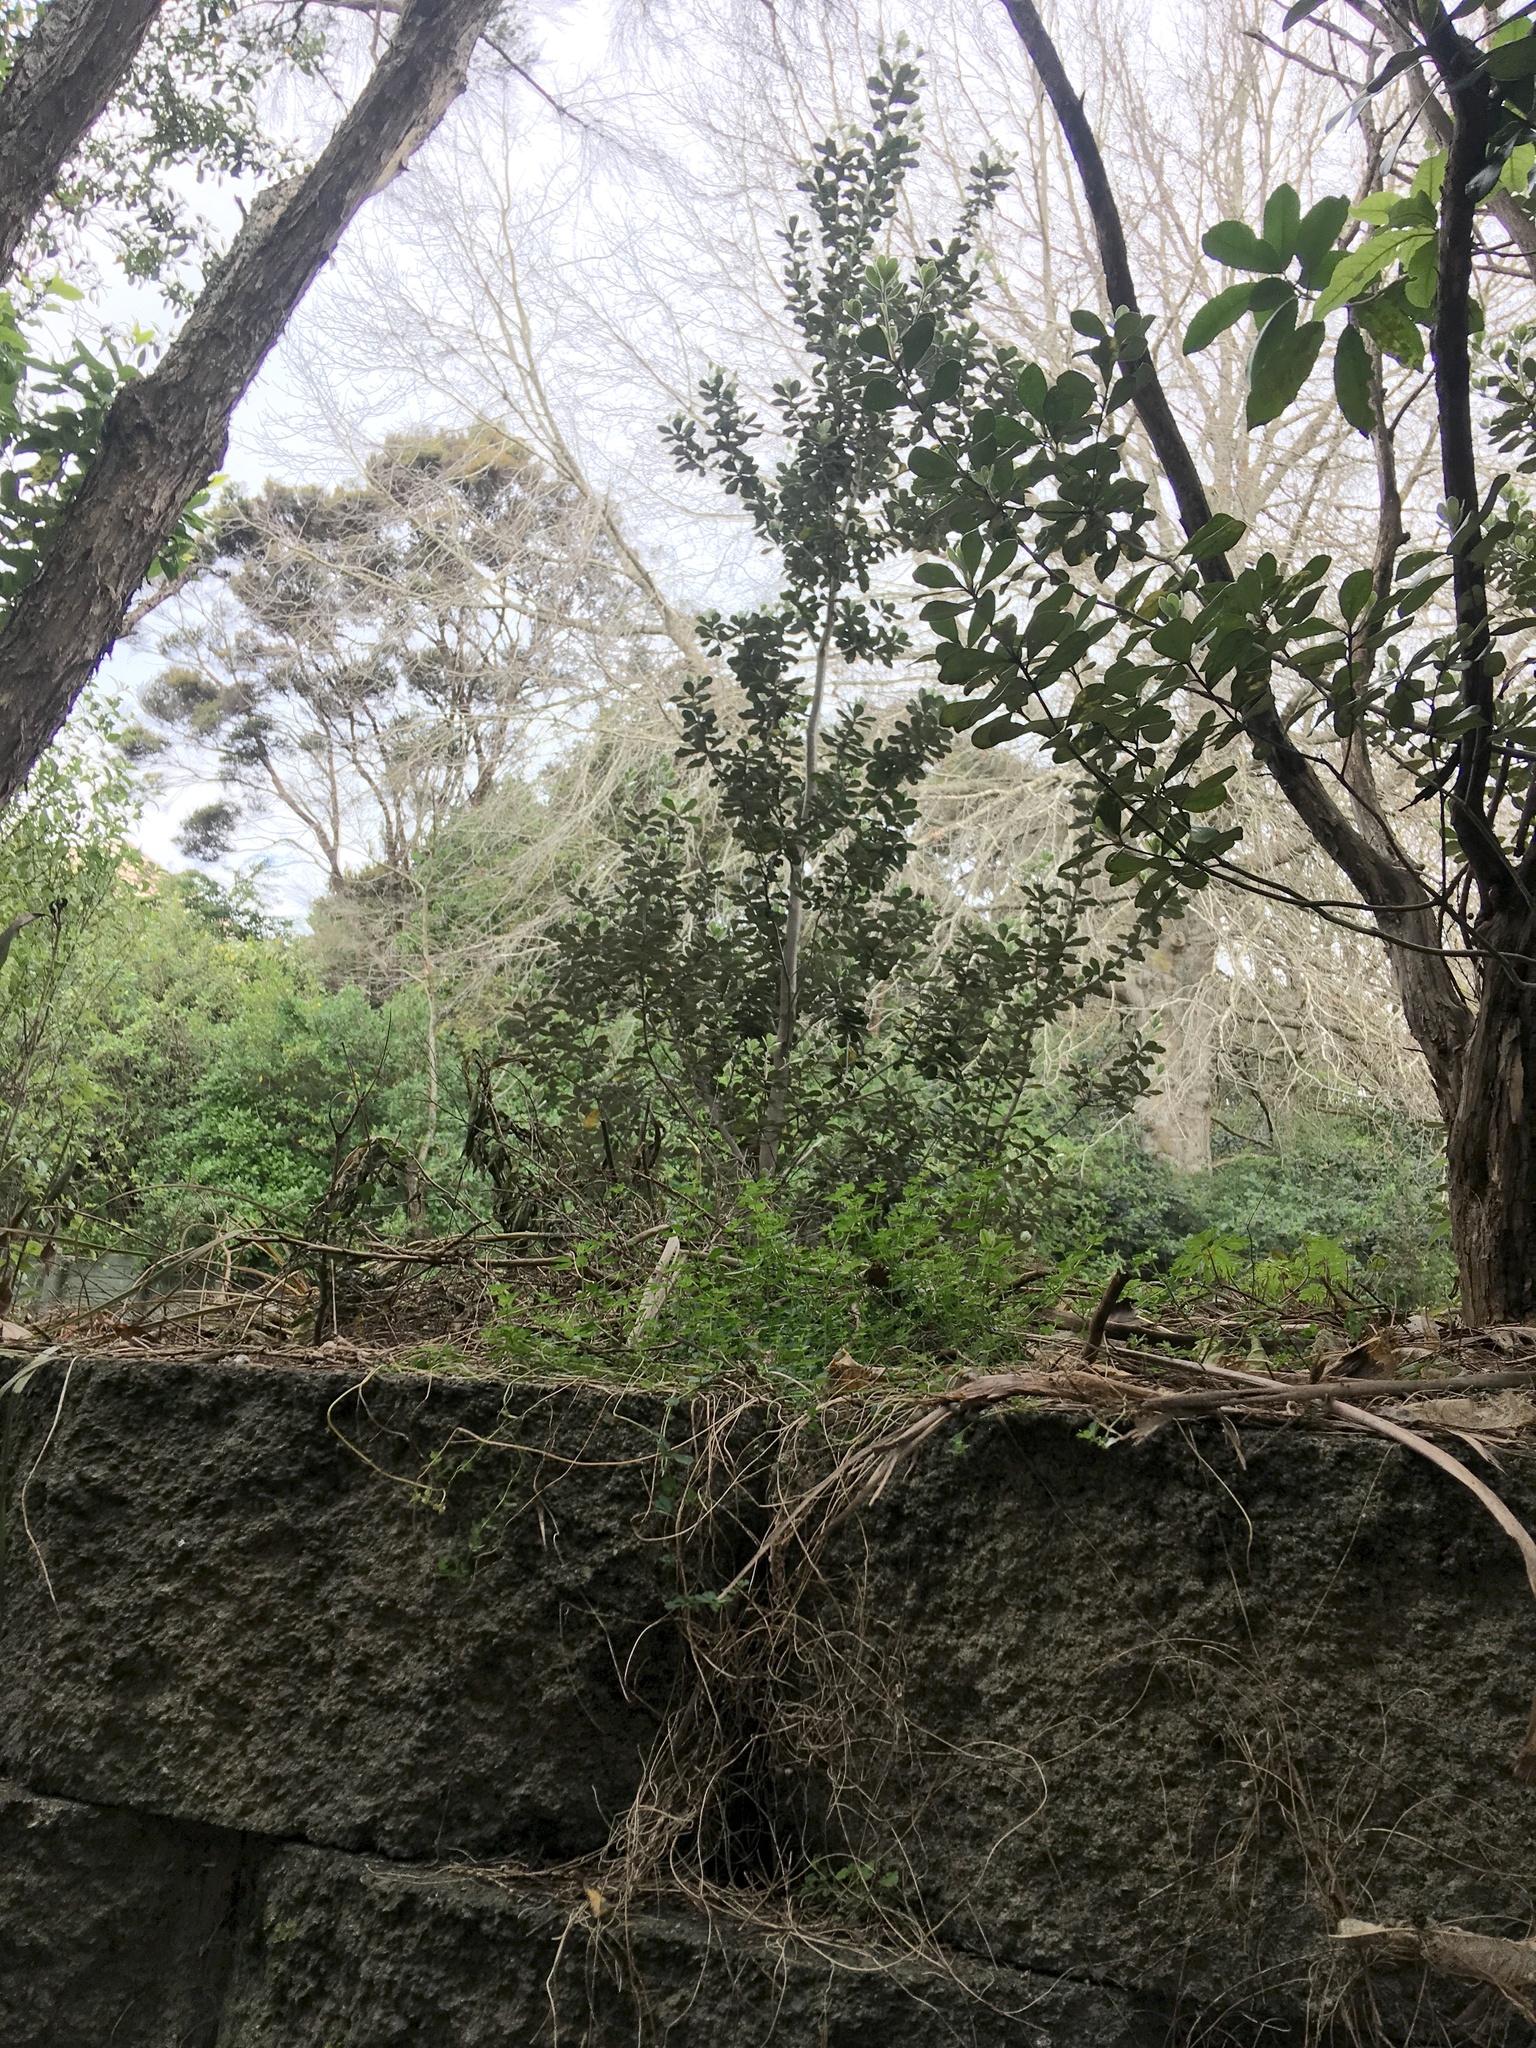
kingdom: Plantae
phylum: Tracheophyta
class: Magnoliopsida
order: Apiales
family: Pittosporaceae
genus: Pittosporum
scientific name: Pittosporum crassifolium
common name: Karo
